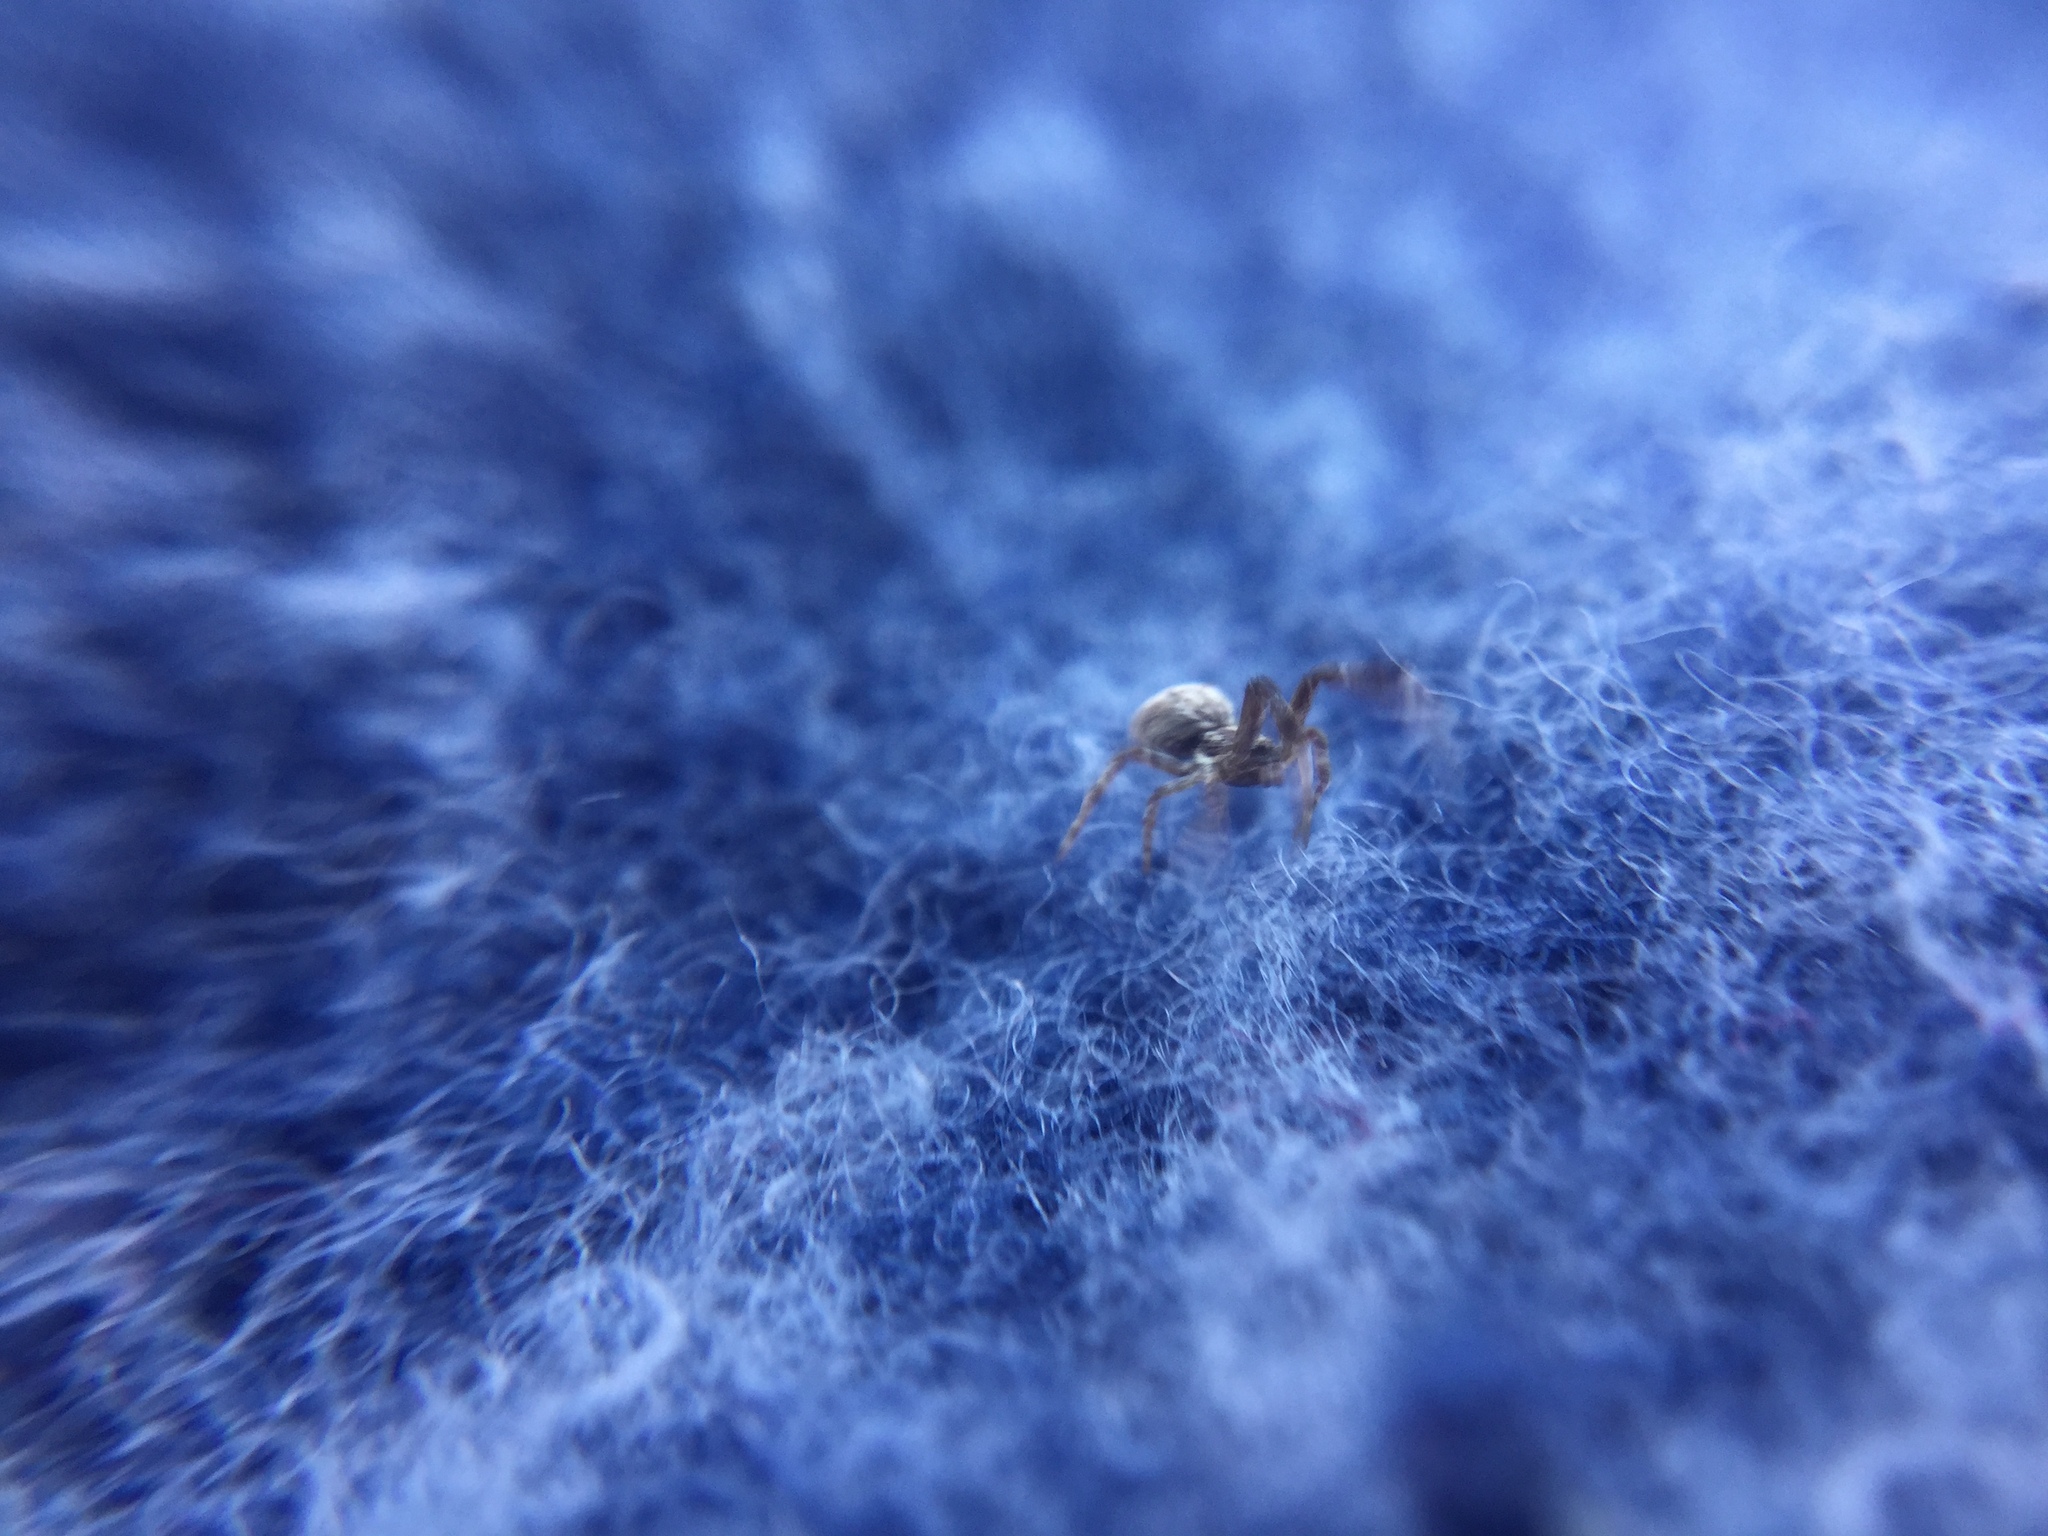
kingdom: Animalia
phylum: Arthropoda
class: Arachnida
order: Araneae
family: Uloboridae
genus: Uloborus
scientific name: Uloborus glomosus
